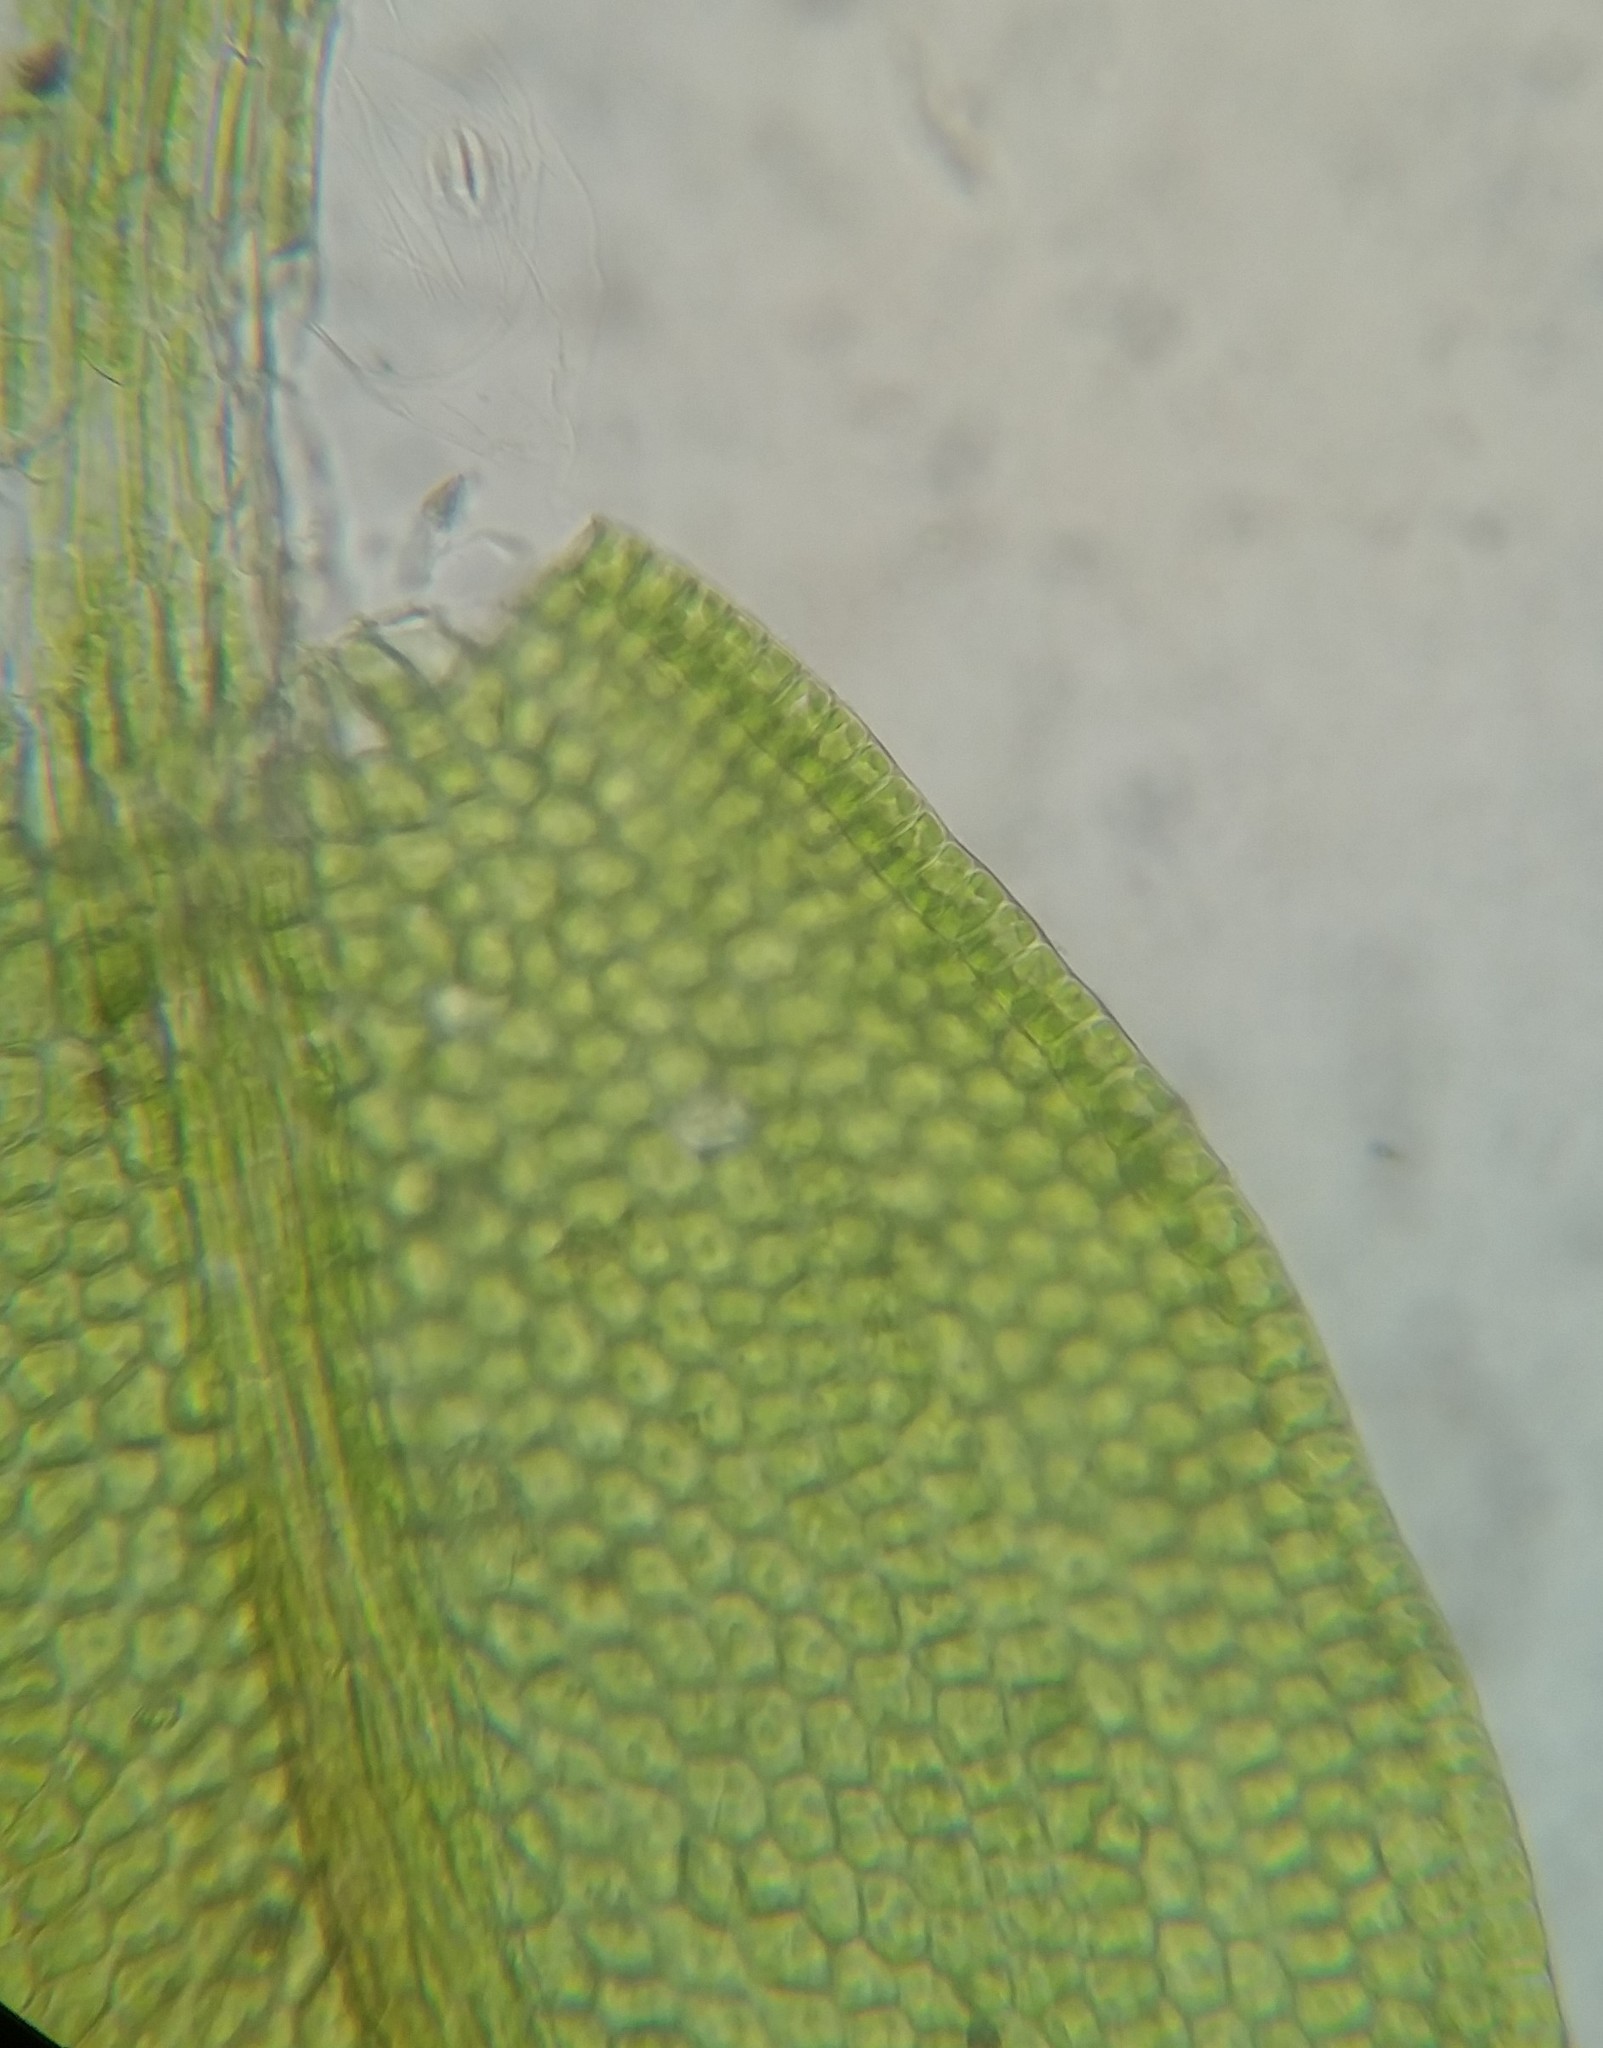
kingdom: Plantae
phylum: Bryophyta
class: Bryopsida
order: Hypnales
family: Leskeaceae
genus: Leskea
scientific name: Leskea gracilescens
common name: Common leske's moss
